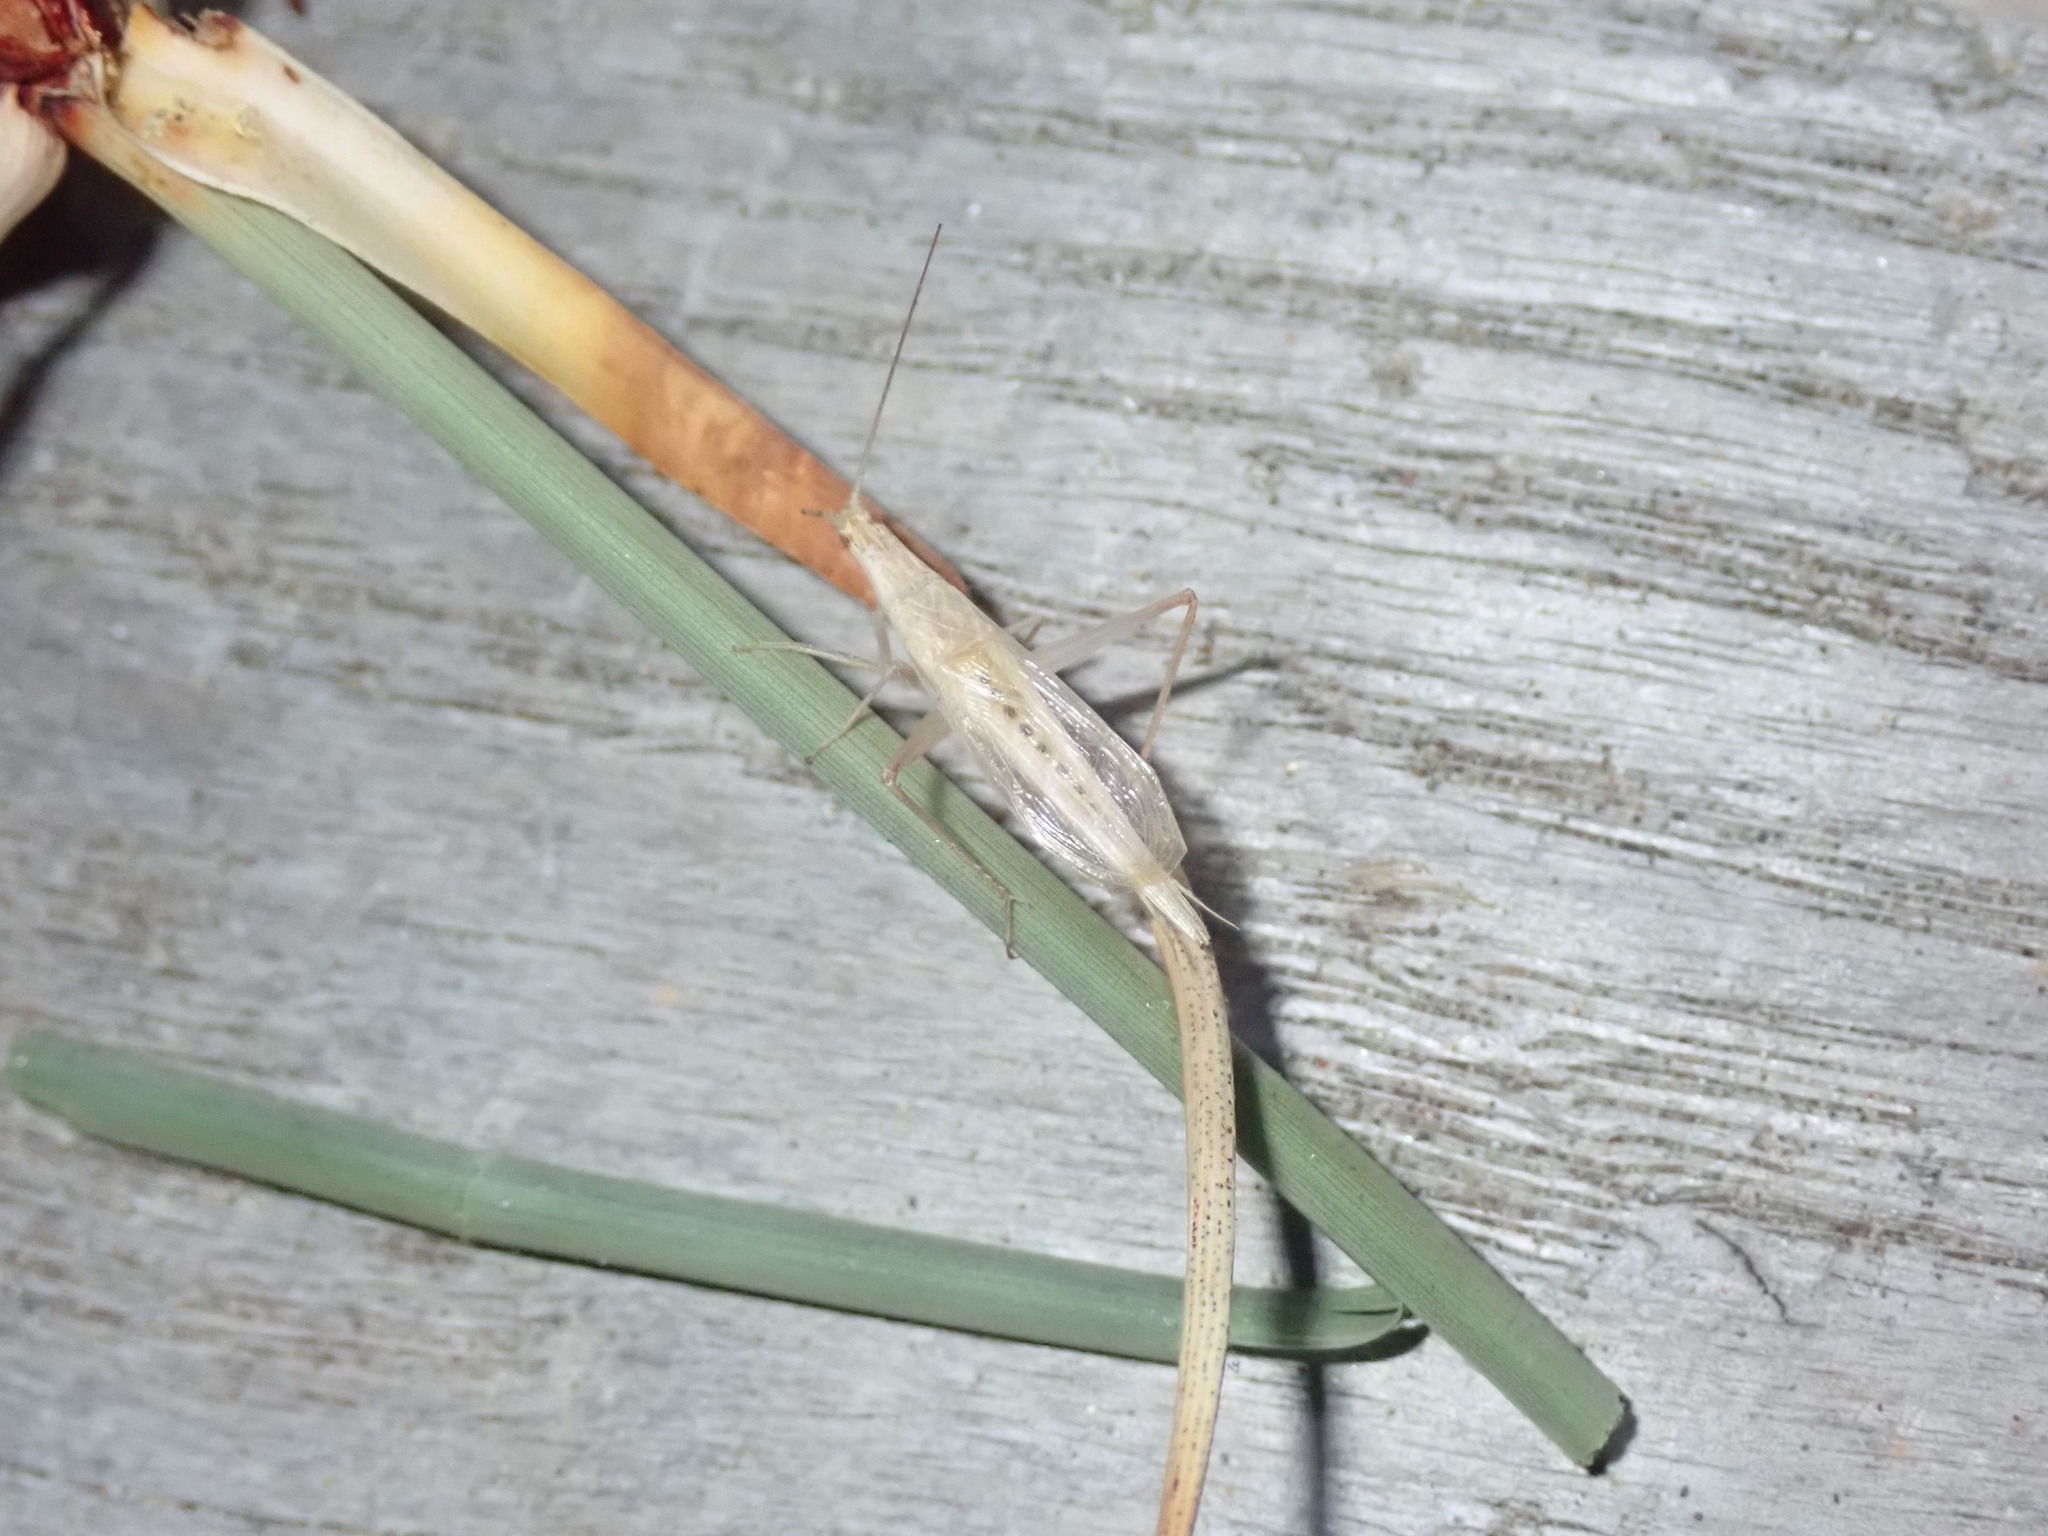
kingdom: Animalia
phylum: Arthropoda
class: Insecta
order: Orthoptera
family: Gryllidae
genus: Oecanthus
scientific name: Oecanthus dulcisonans
